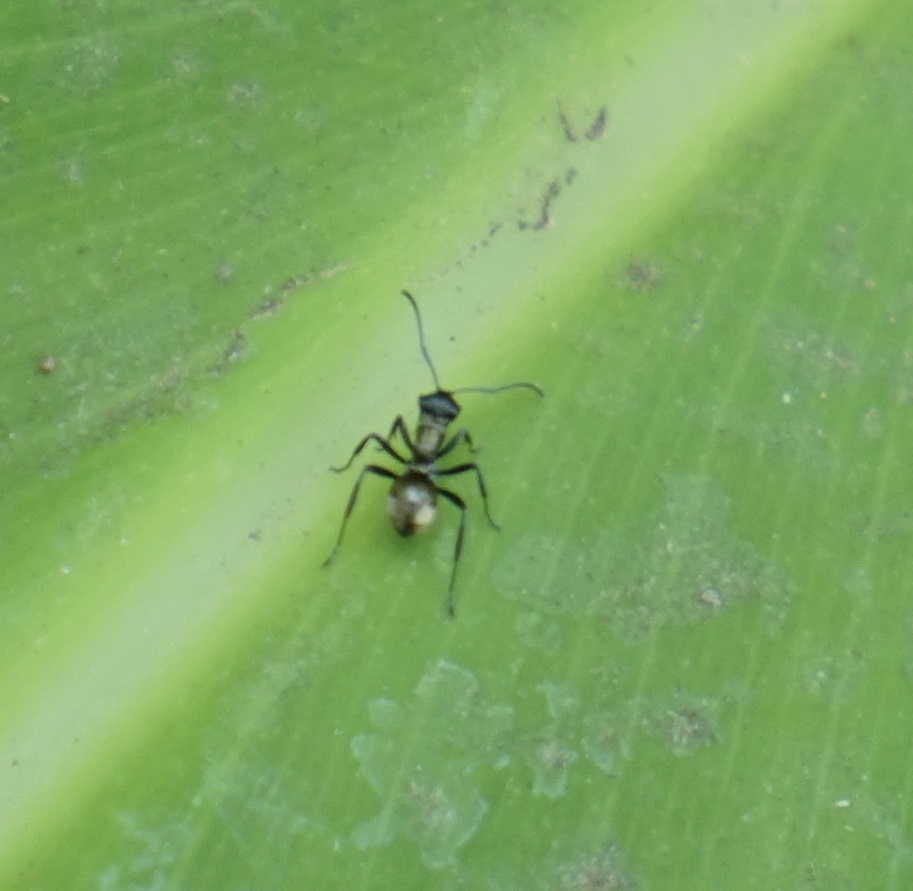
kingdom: Animalia
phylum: Arthropoda
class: Insecta
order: Hymenoptera
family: Formicidae
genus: Polyrhachis
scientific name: Polyrhachis ammon
